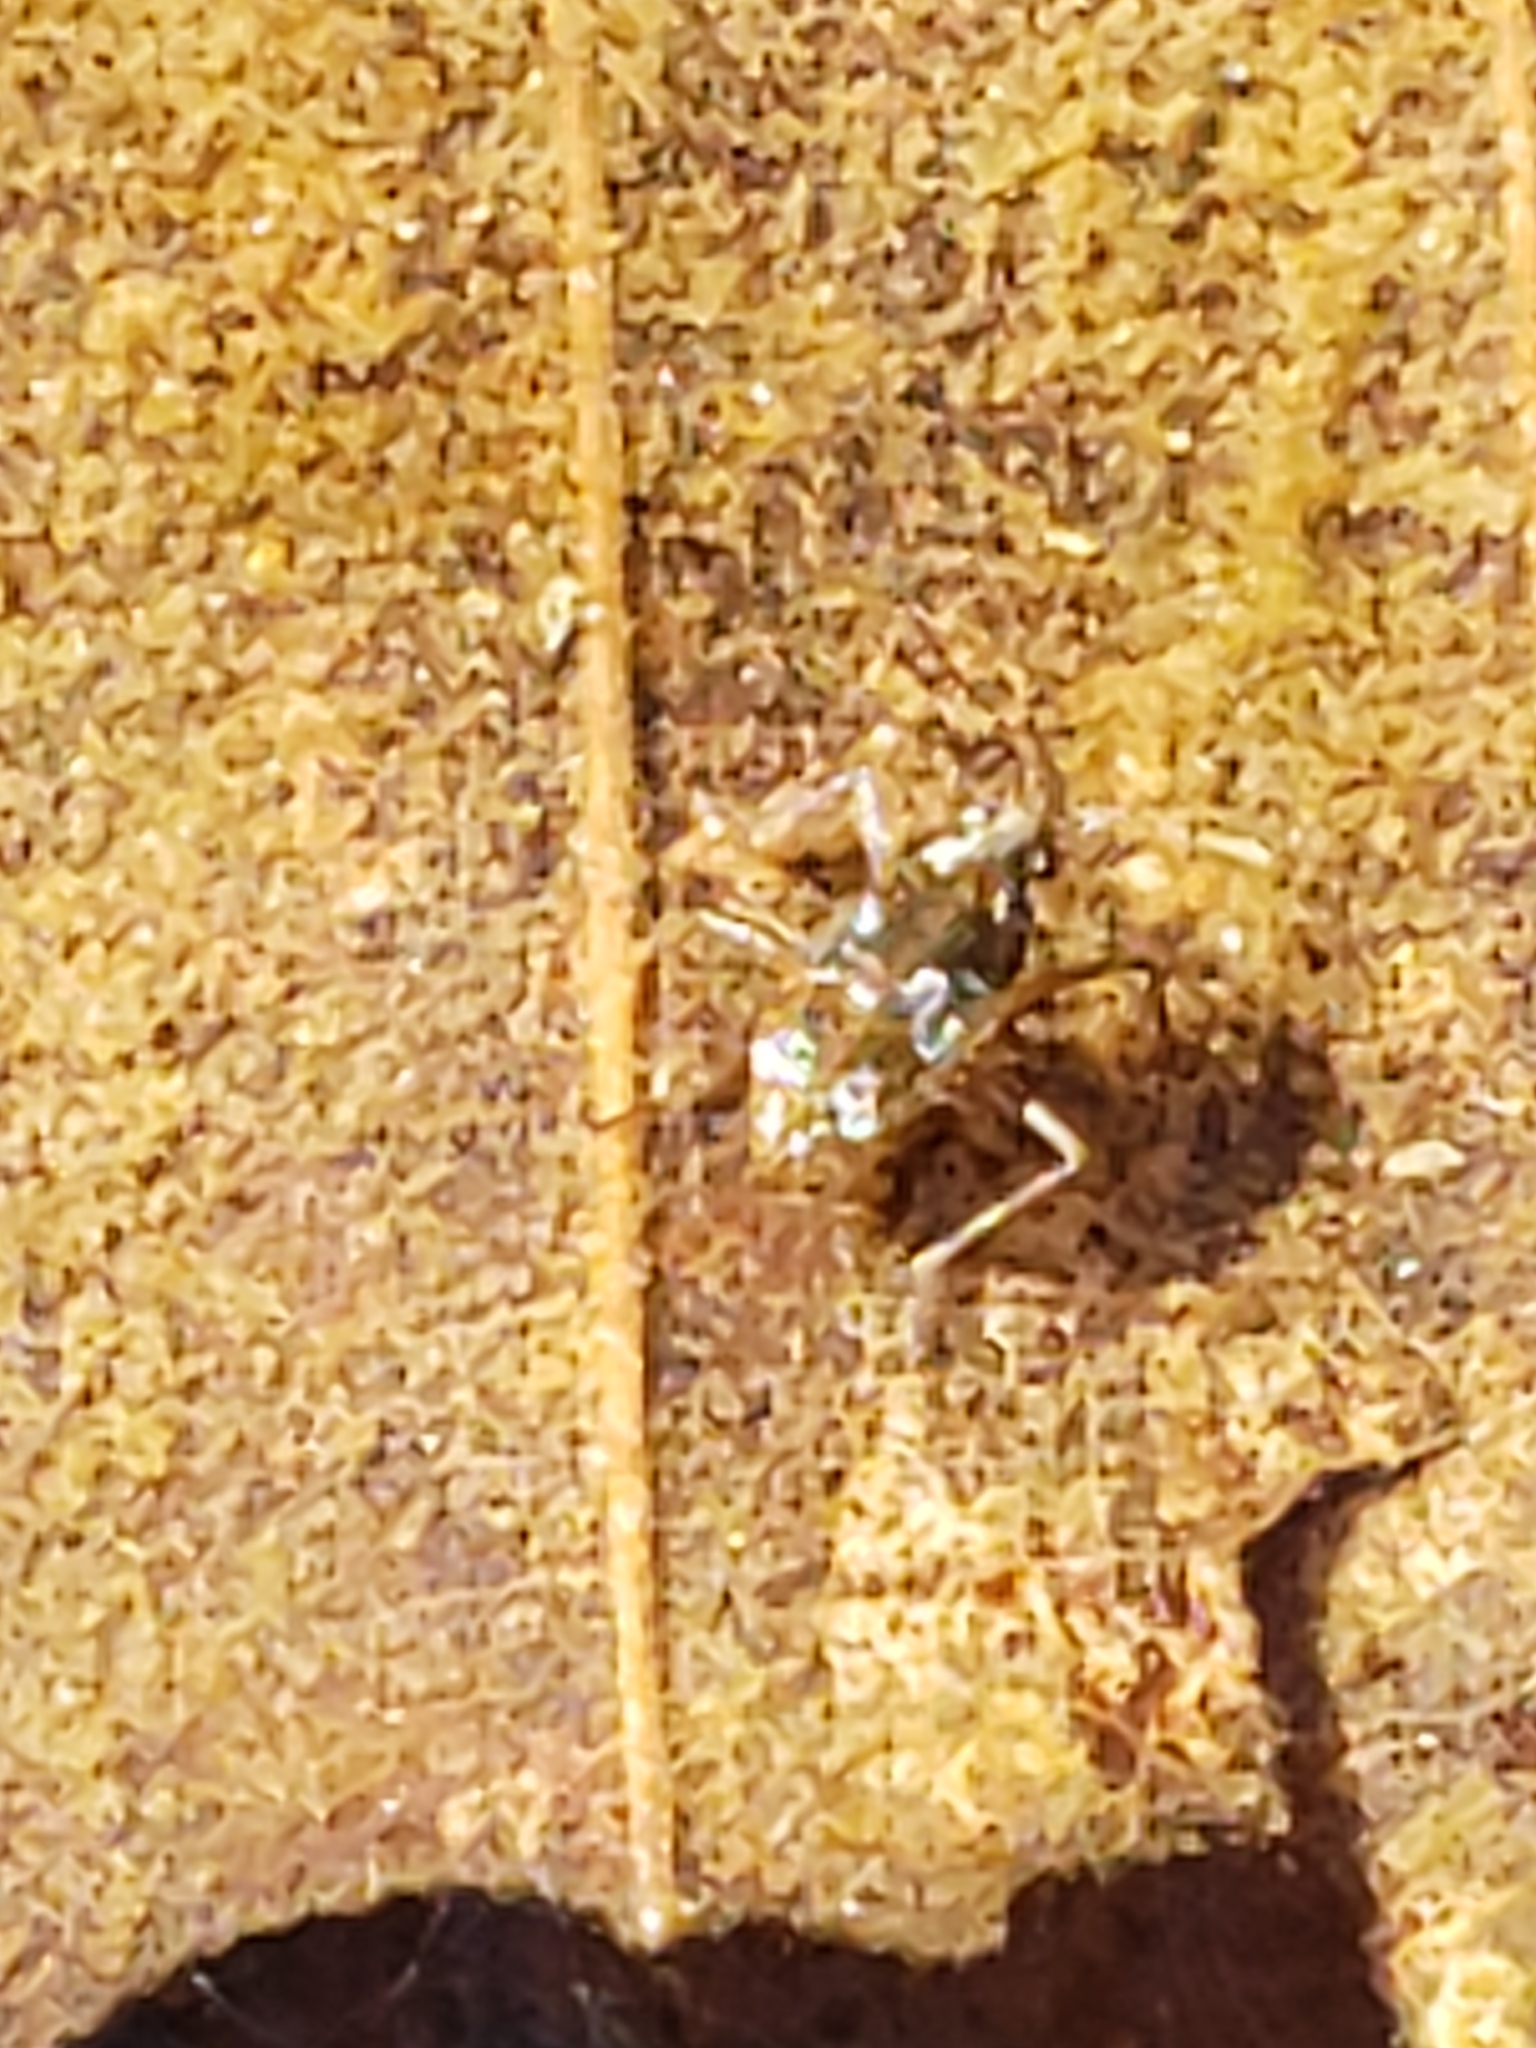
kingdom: Animalia
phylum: Arthropoda
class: Insecta
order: Hemiptera
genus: Kirkaldya
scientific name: Kirkaldya
